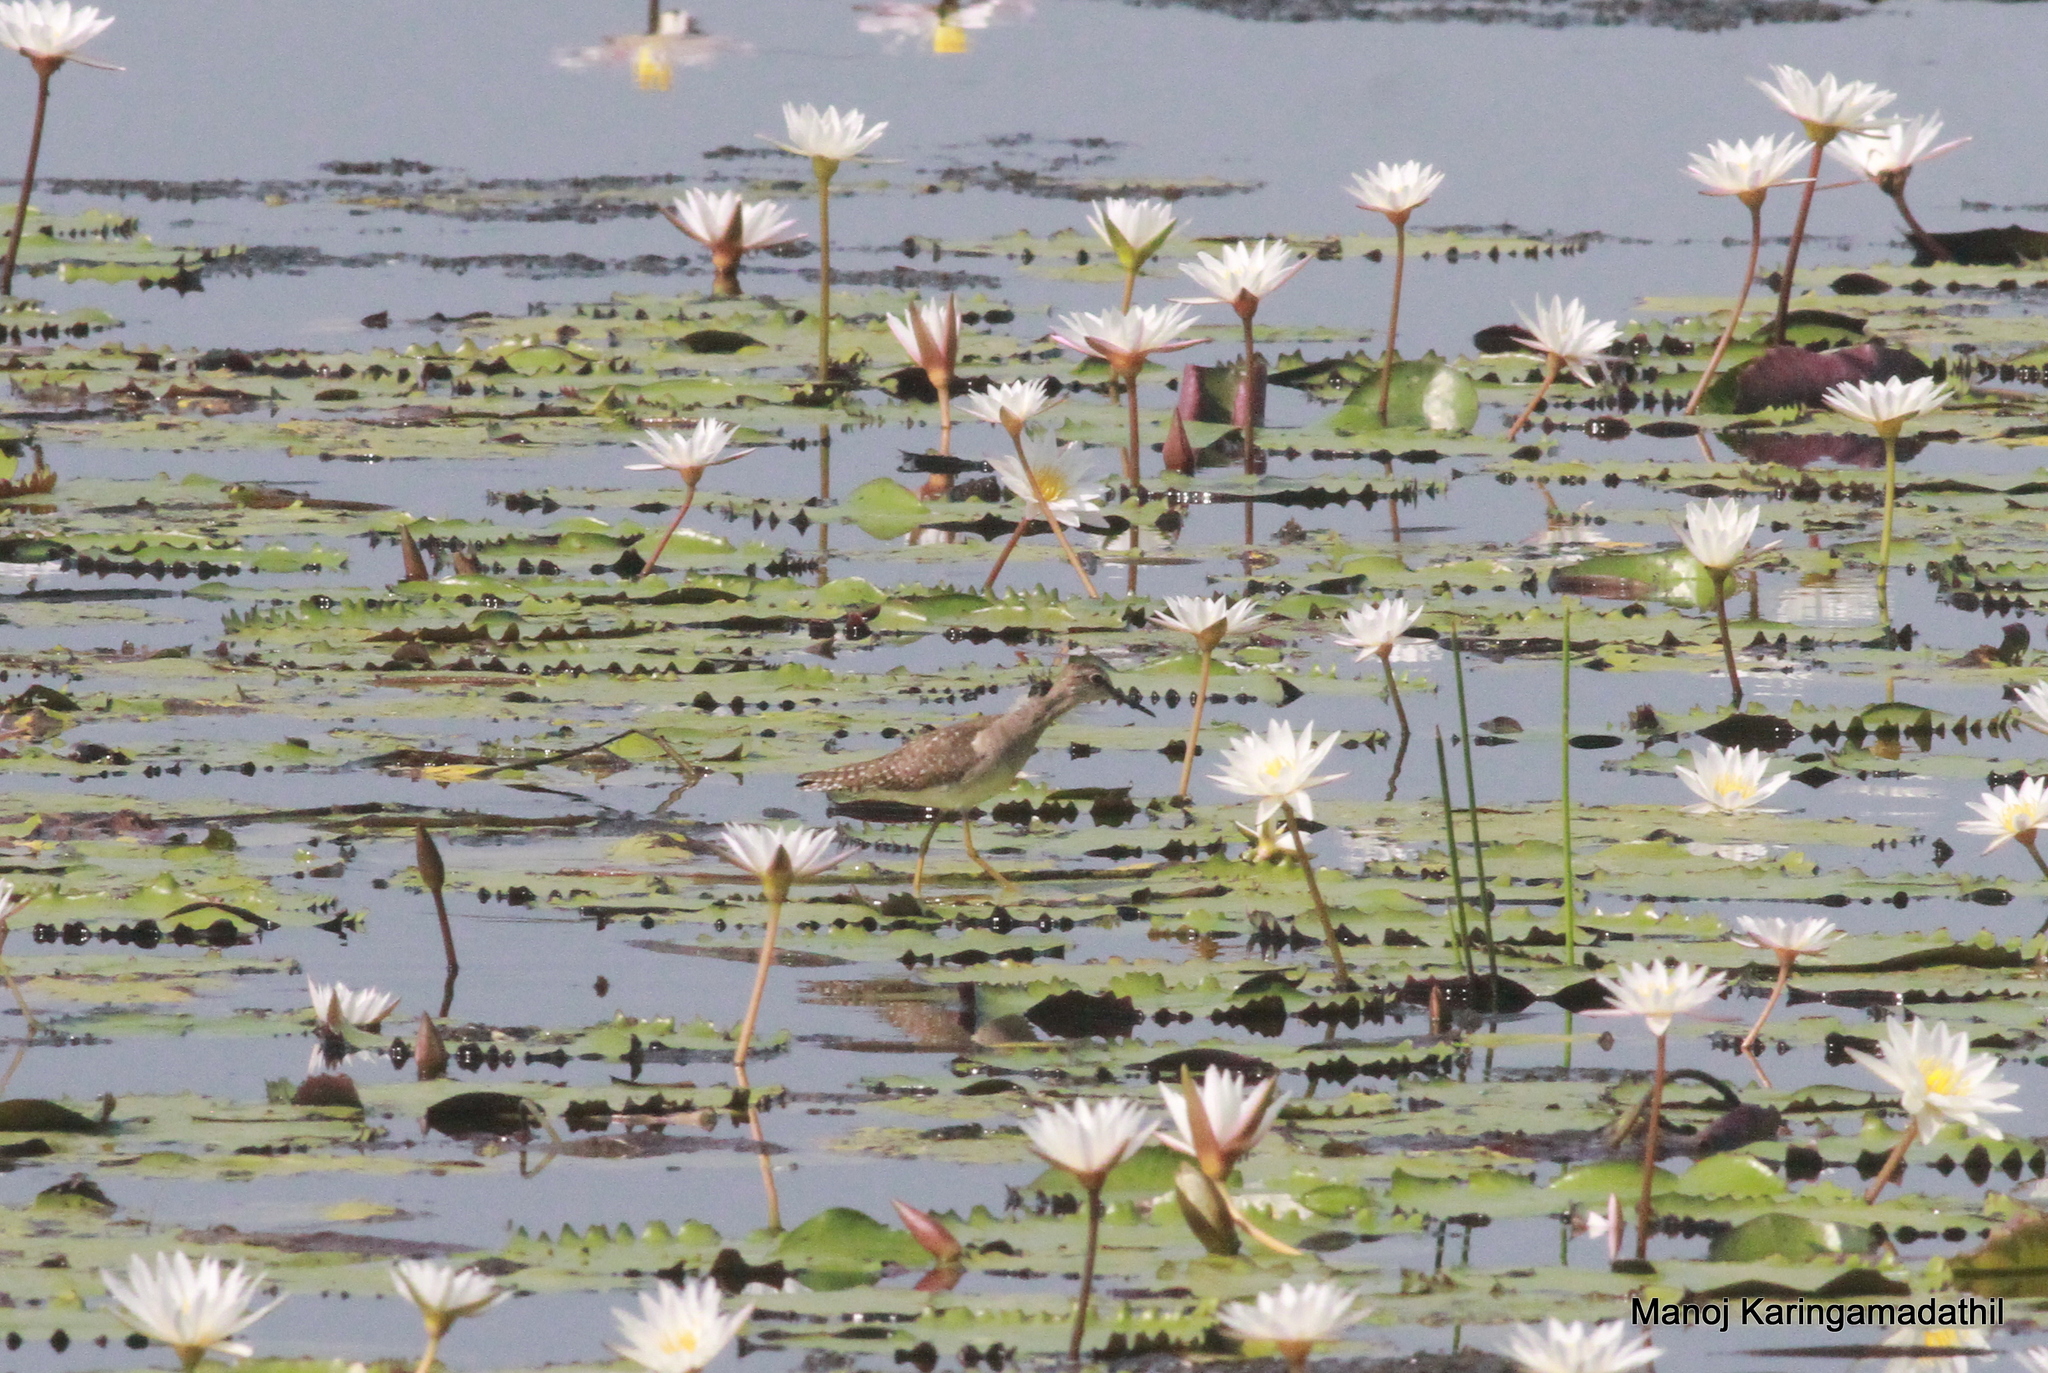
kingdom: Animalia
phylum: Chordata
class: Aves
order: Charadriiformes
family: Scolopacidae
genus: Tringa
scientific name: Tringa glareola
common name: Wood sandpiper
